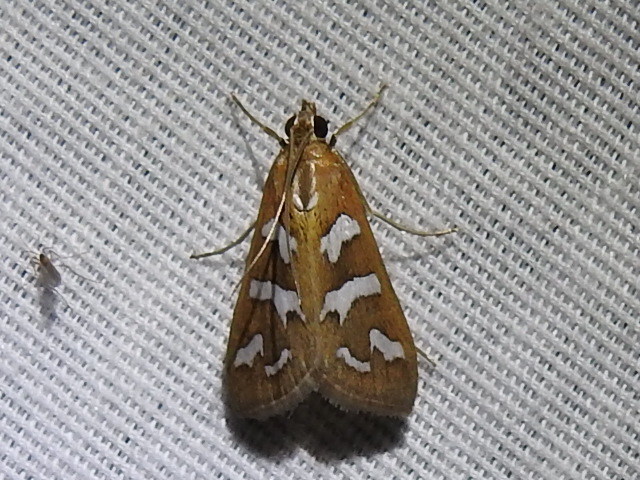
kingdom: Animalia
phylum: Arthropoda
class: Insecta
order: Lepidoptera
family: Crambidae
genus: Diastictis
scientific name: Diastictis fracturalis
